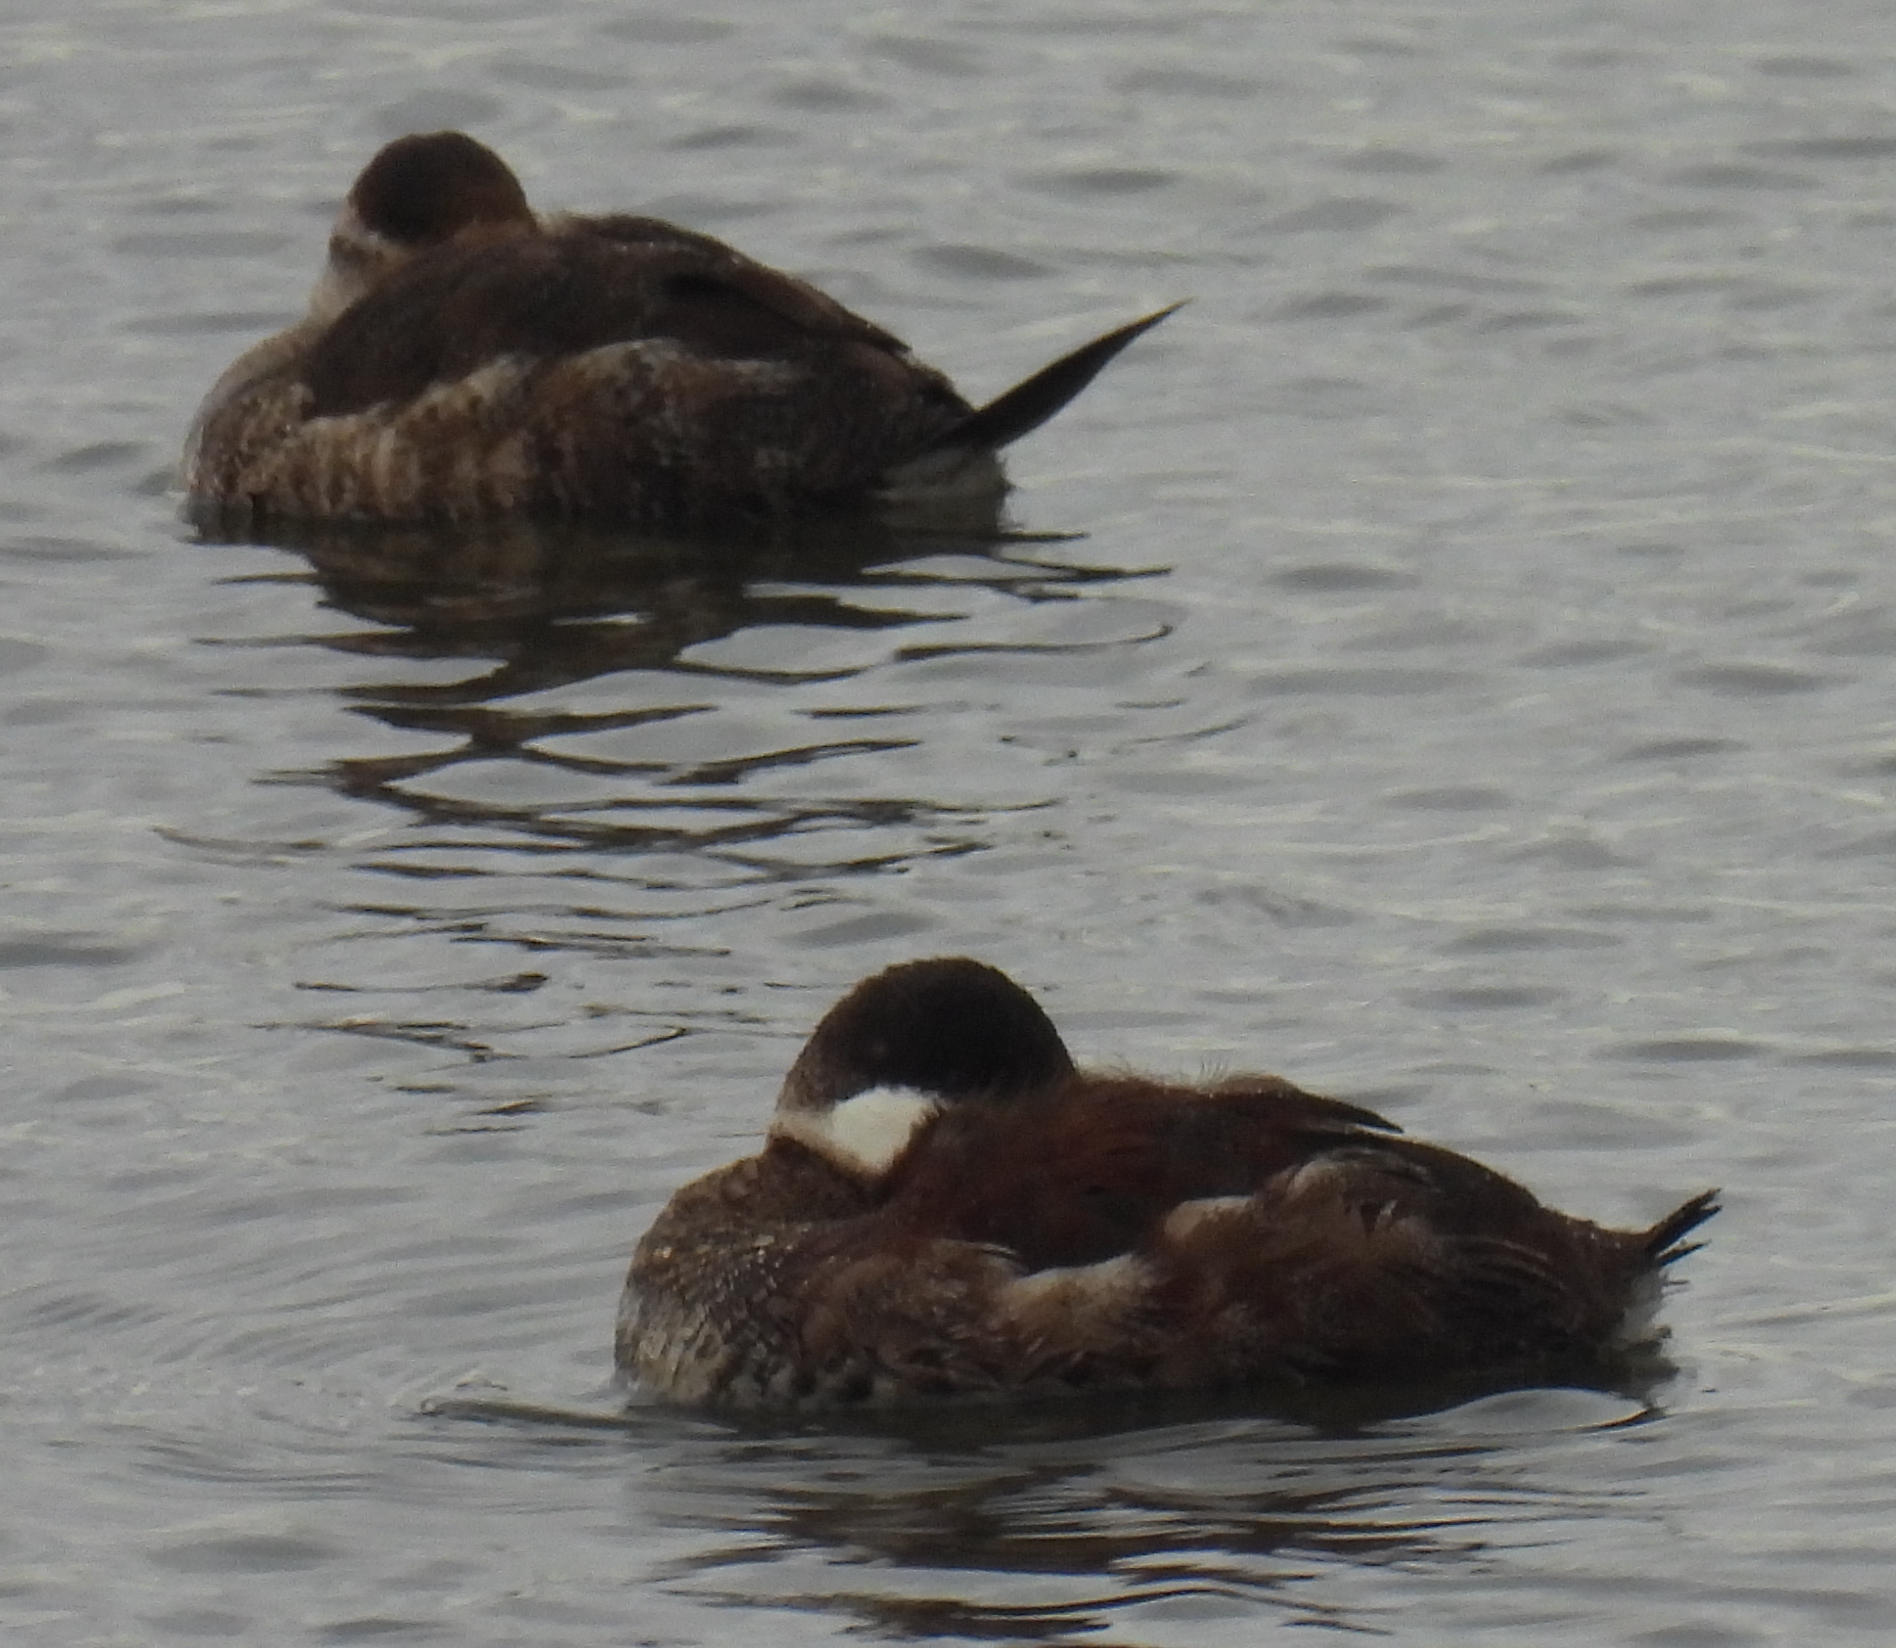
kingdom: Animalia
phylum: Chordata
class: Aves
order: Anseriformes
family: Anatidae
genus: Oxyura
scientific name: Oxyura jamaicensis
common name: Ruddy duck
